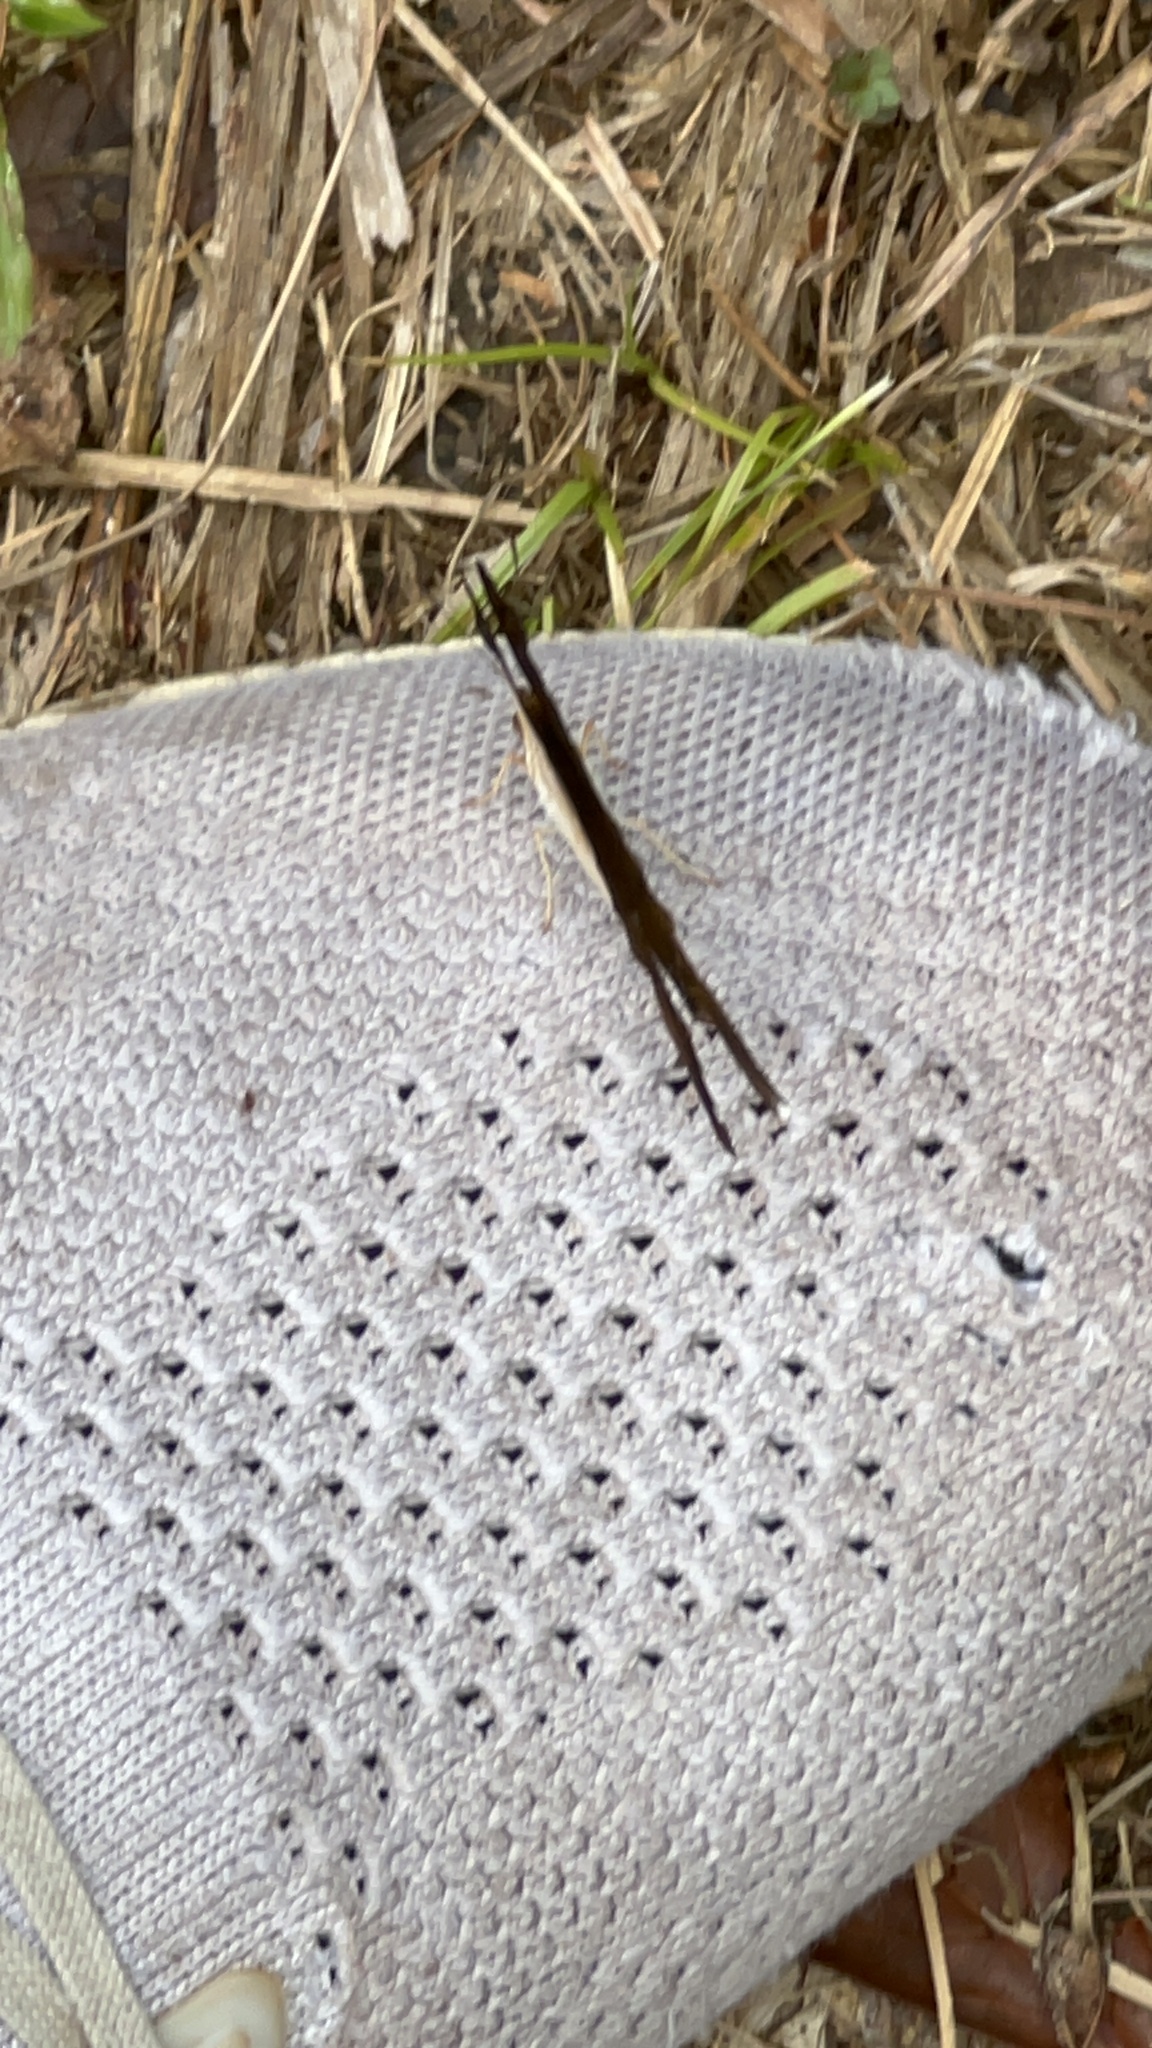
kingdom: Animalia
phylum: Arthropoda
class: Insecta
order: Lepidoptera
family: Nymphalidae
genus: Marpesia
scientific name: Marpesia chiron
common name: Many-banded daggerwing
